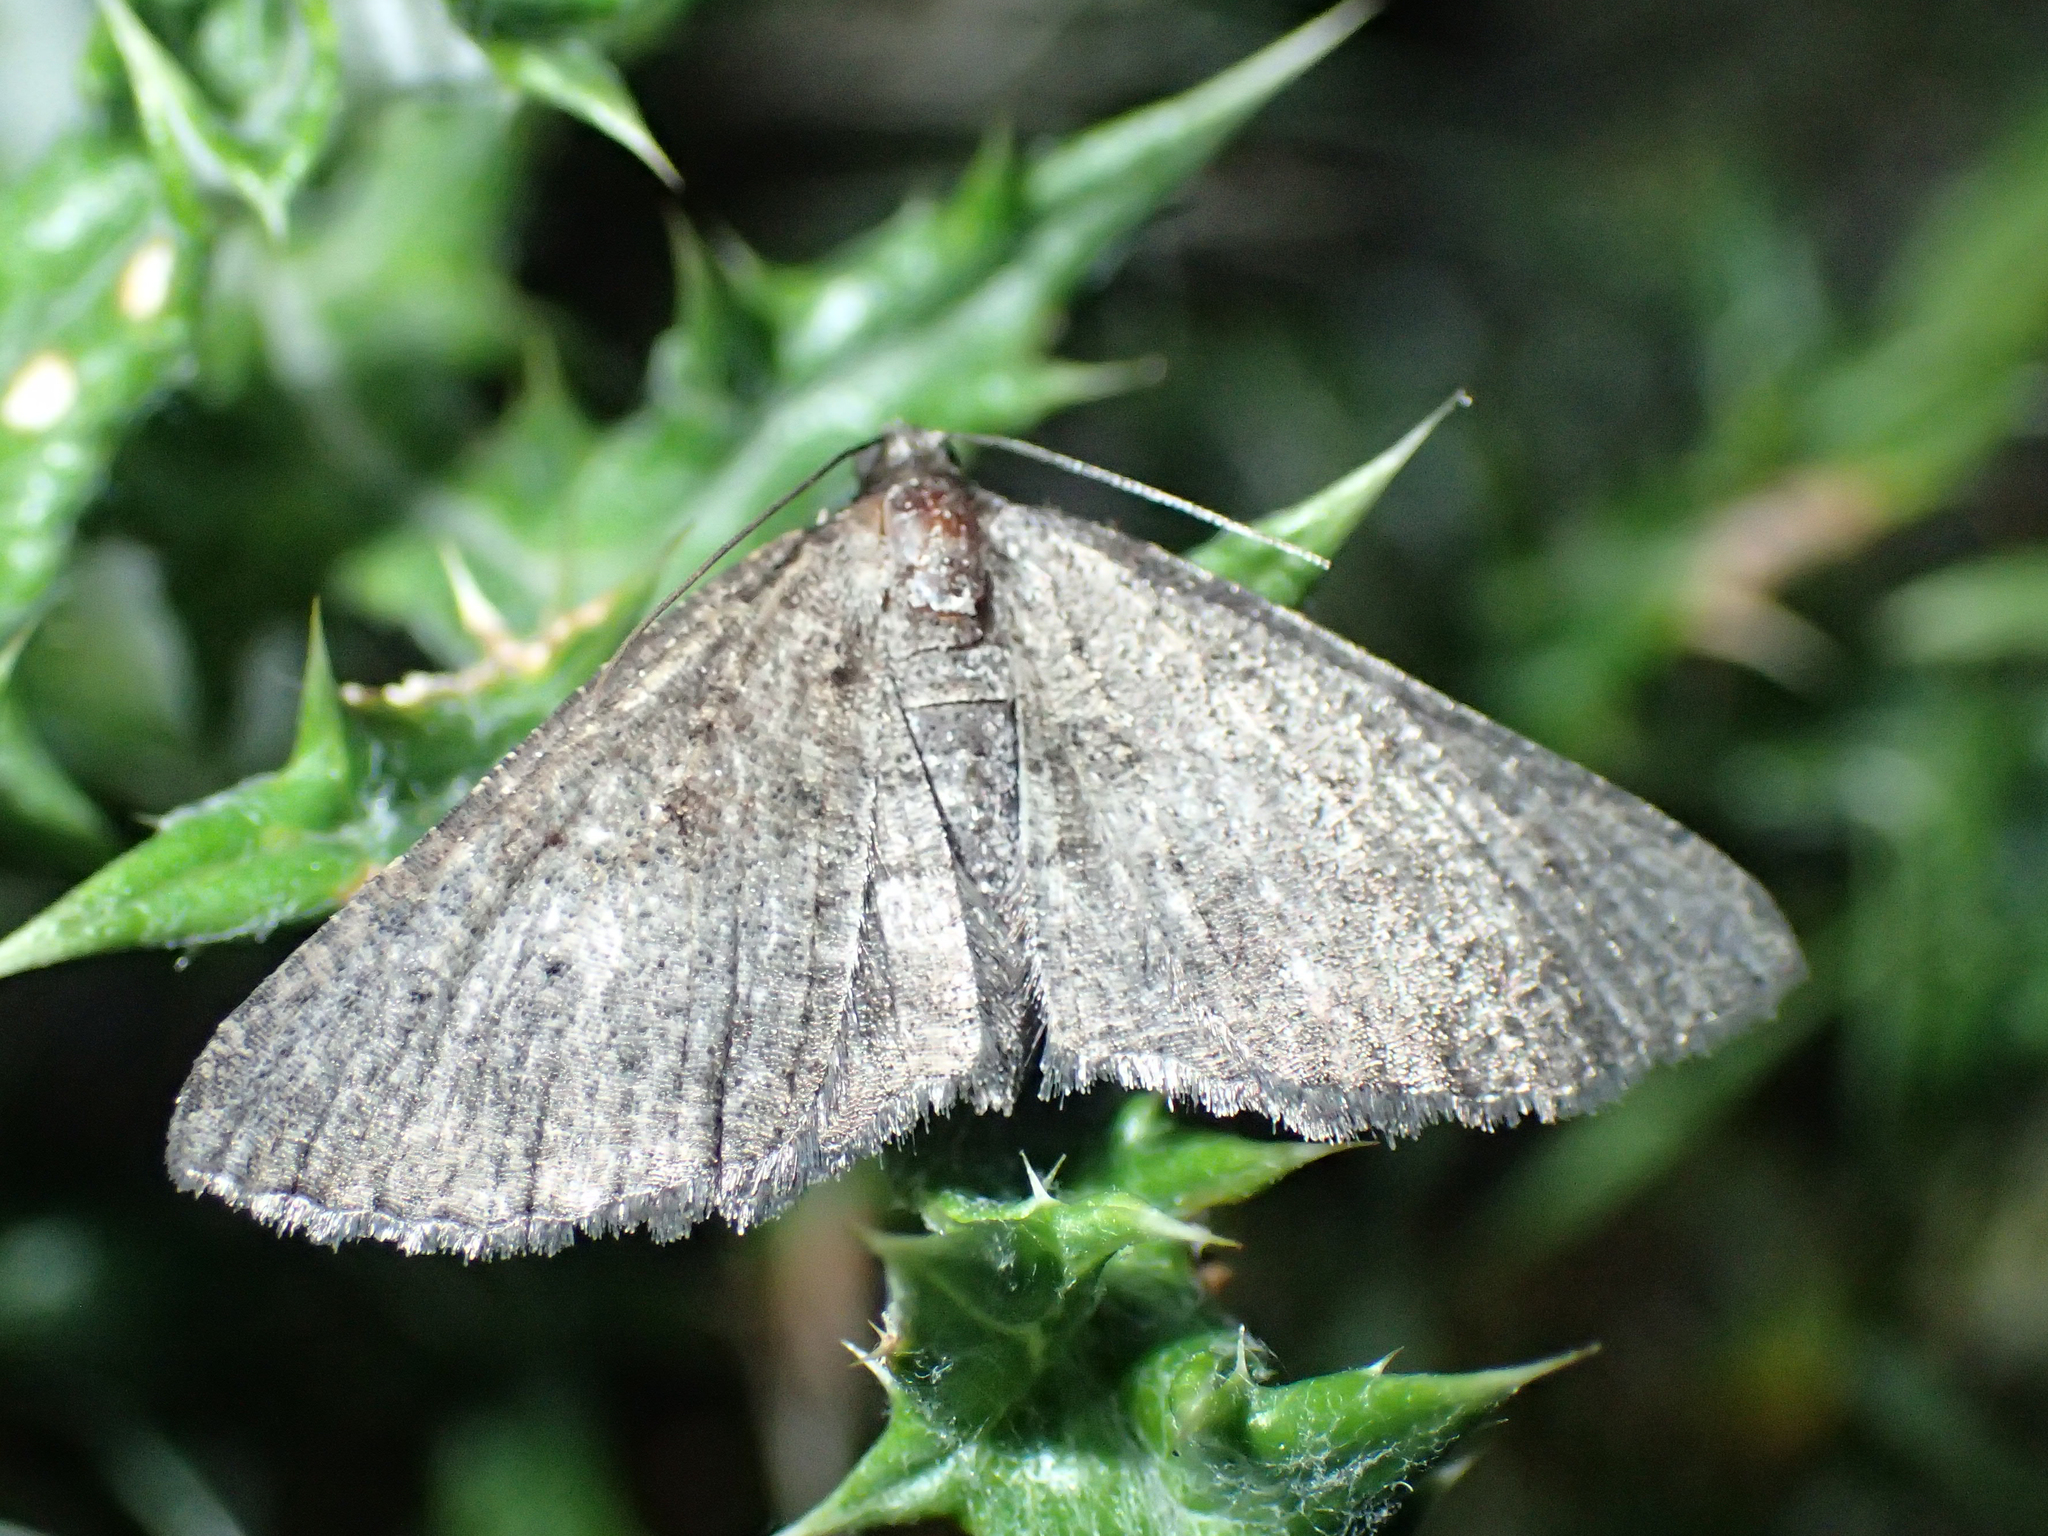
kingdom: Animalia
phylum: Arthropoda
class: Insecta
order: Lepidoptera
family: Geometridae
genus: Rhoptria
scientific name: Rhoptria asperaria
